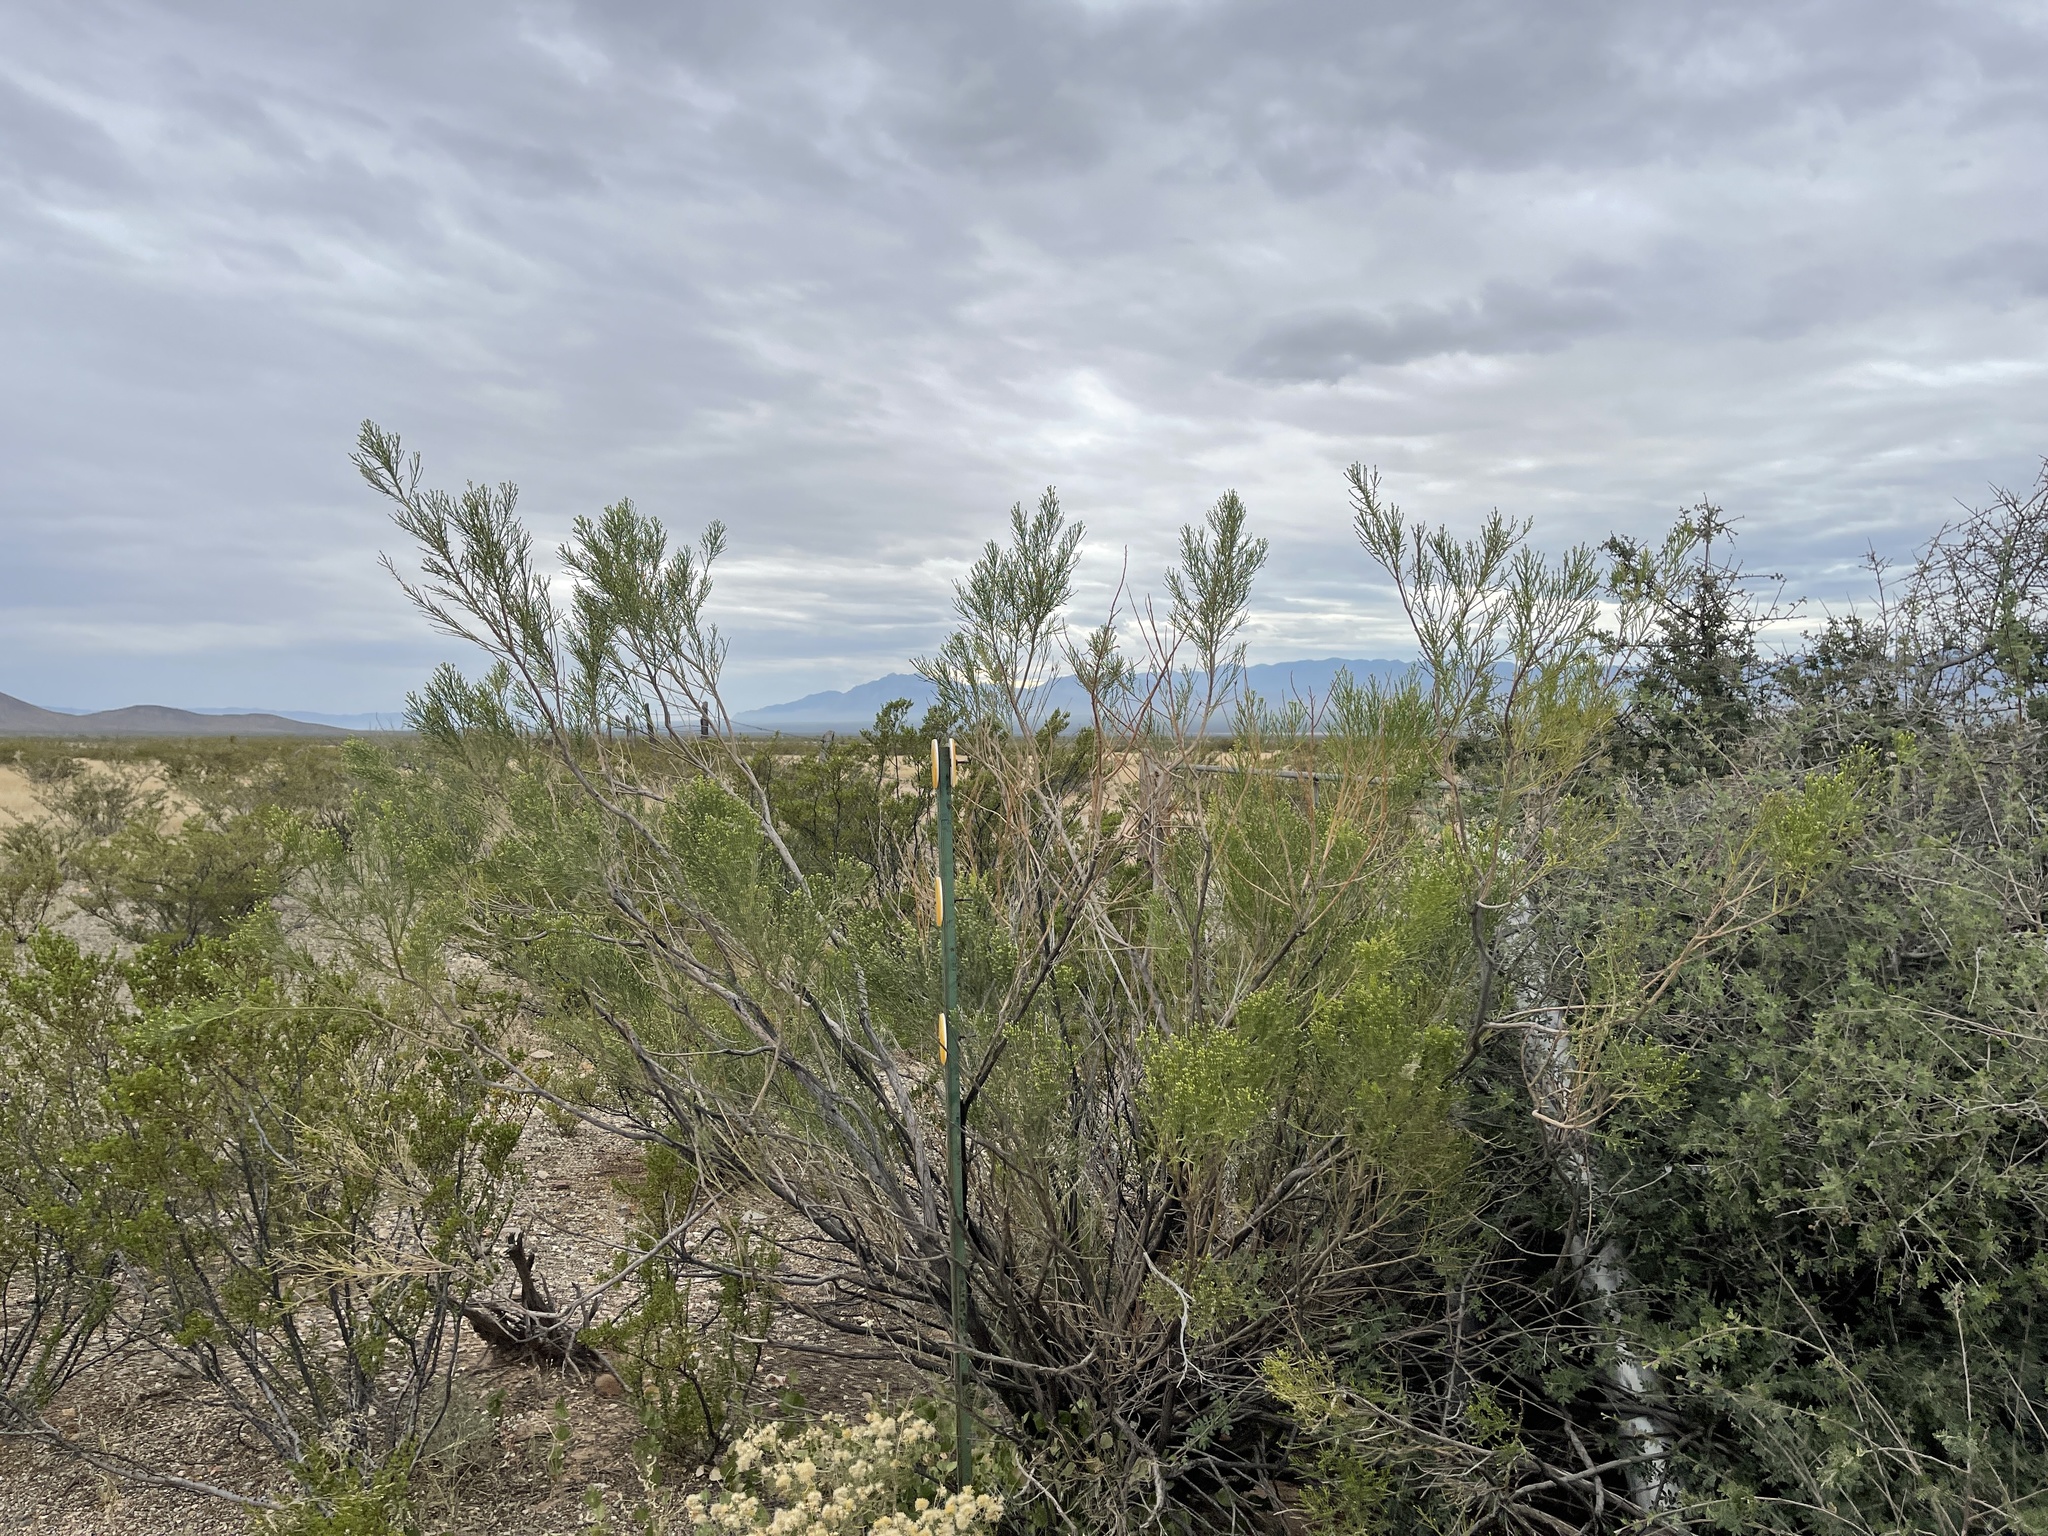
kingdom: Plantae
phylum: Tracheophyta
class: Magnoliopsida
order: Asterales
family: Asteraceae
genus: Baccharis
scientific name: Baccharis sarothroides
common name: Desert-broom
